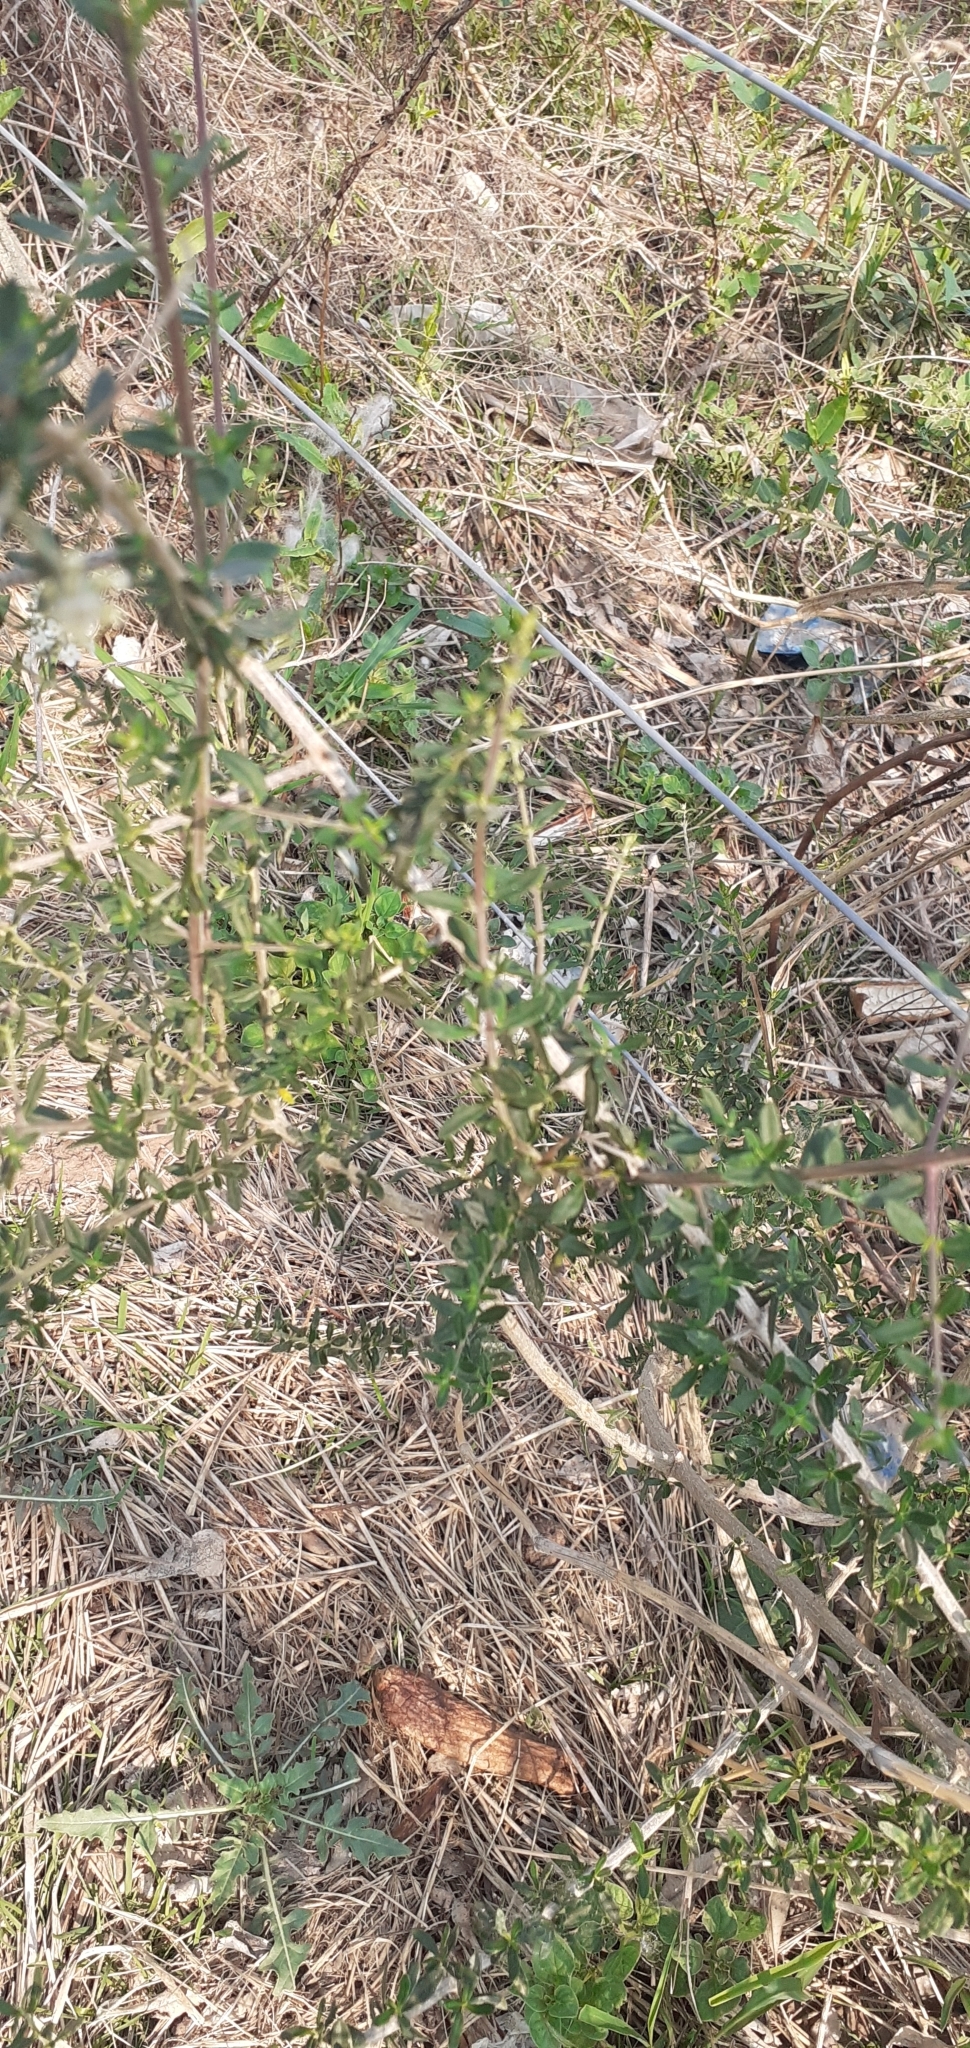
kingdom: Plantae
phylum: Tracheophyta
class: Magnoliopsida
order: Lamiales
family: Verbenaceae
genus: Aloysia
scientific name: Aloysia gratissima
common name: Common bee-brush
